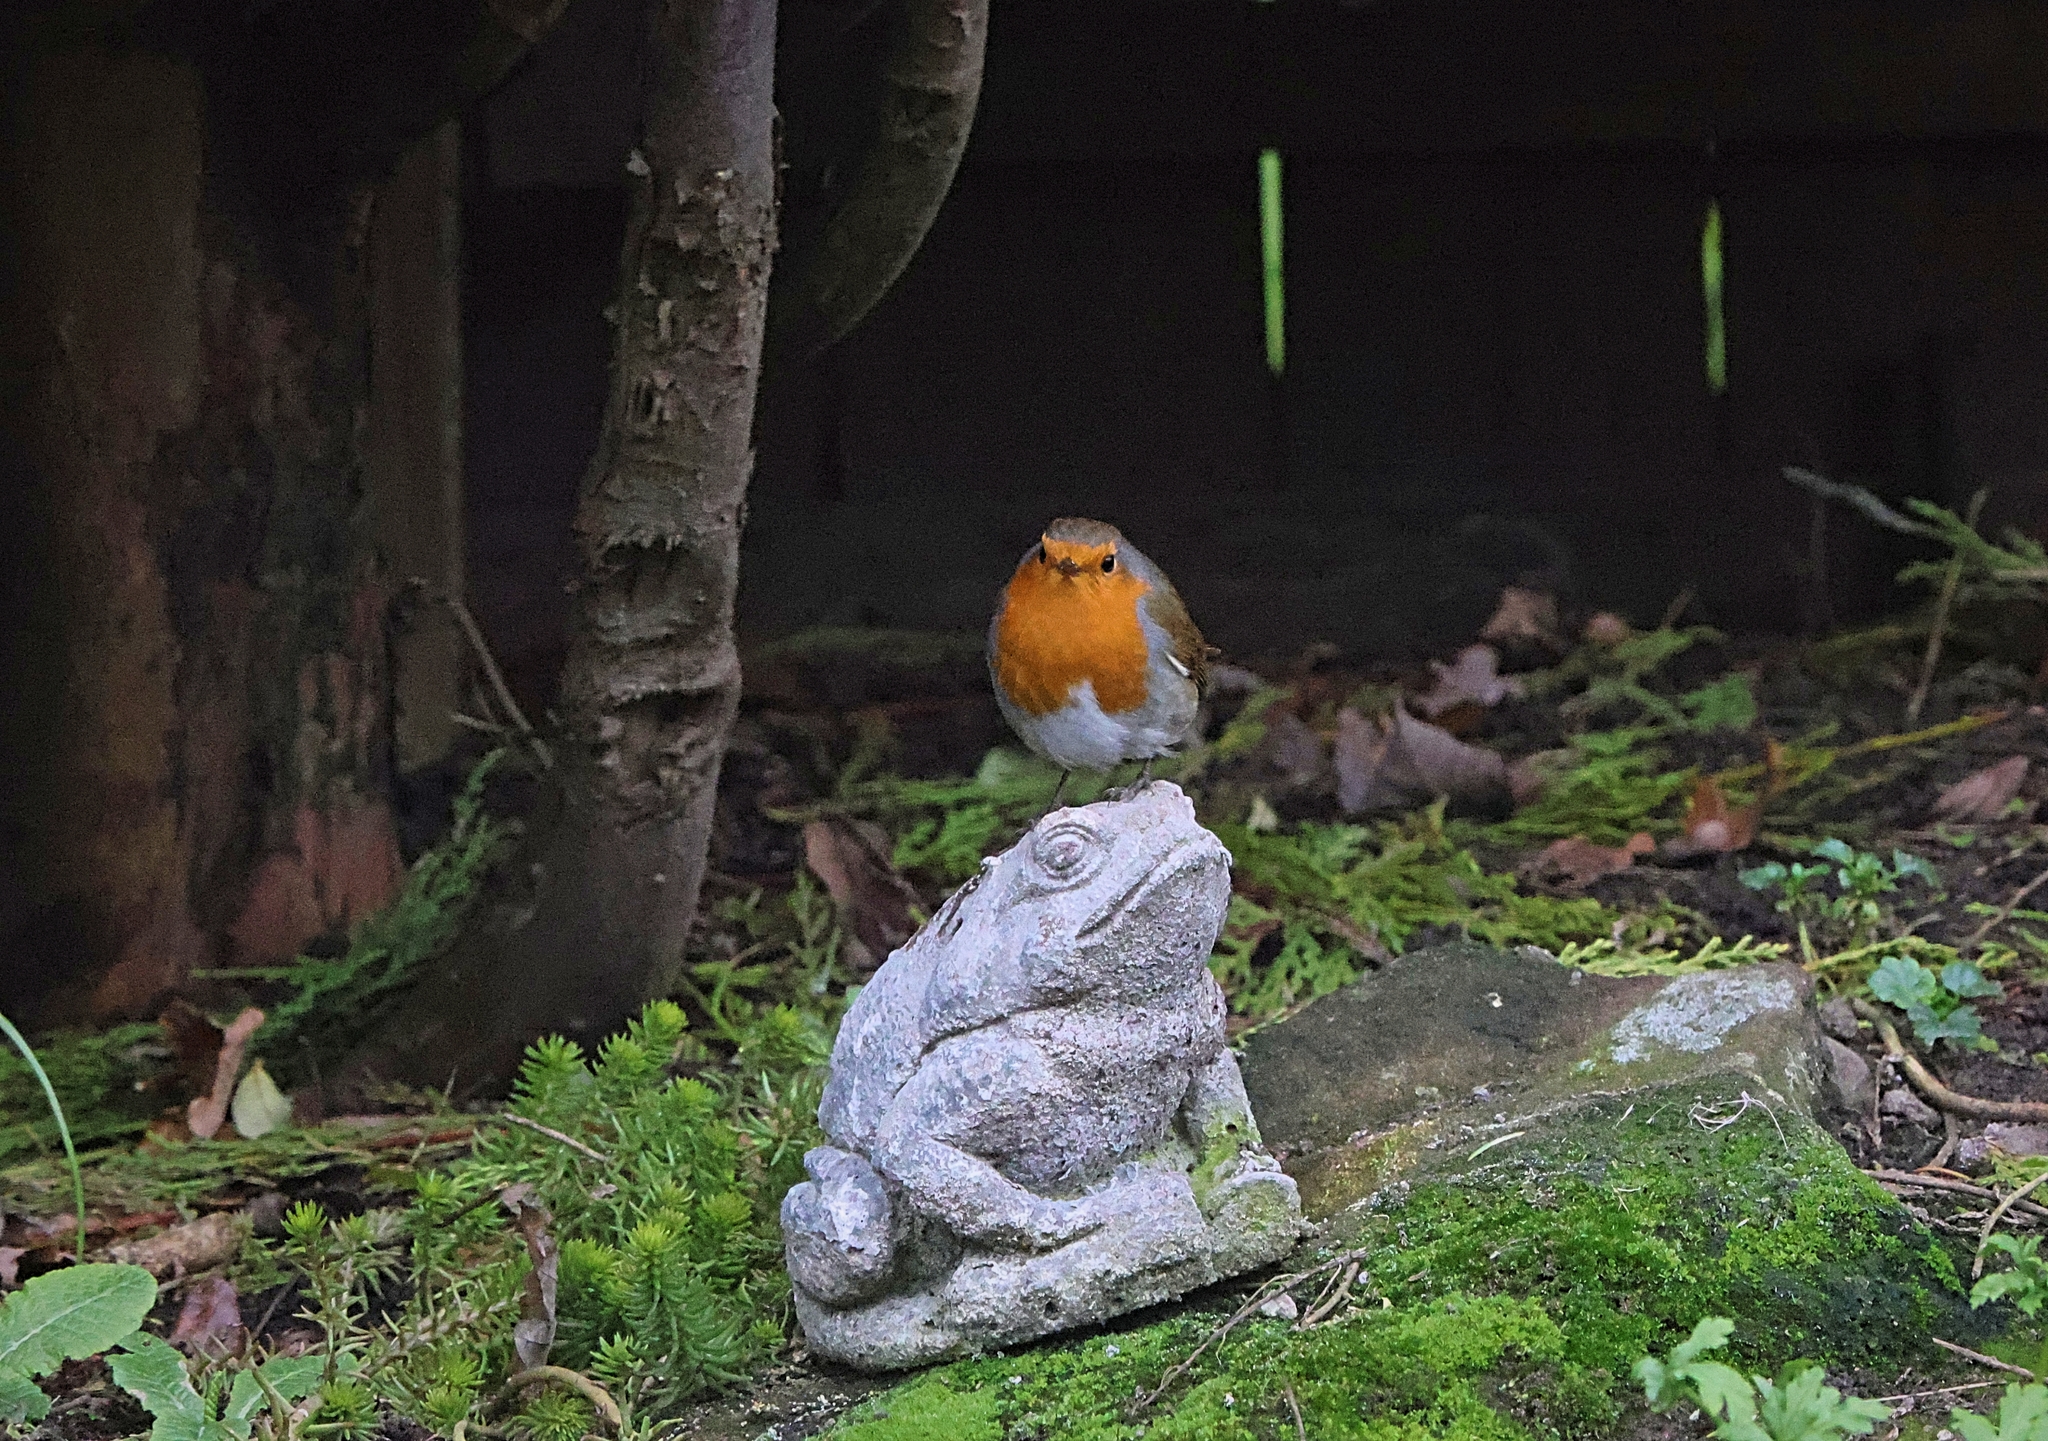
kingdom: Animalia
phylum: Chordata
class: Aves
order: Passeriformes
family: Muscicapidae
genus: Erithacus
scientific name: Erithacus rubecula
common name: European robin
